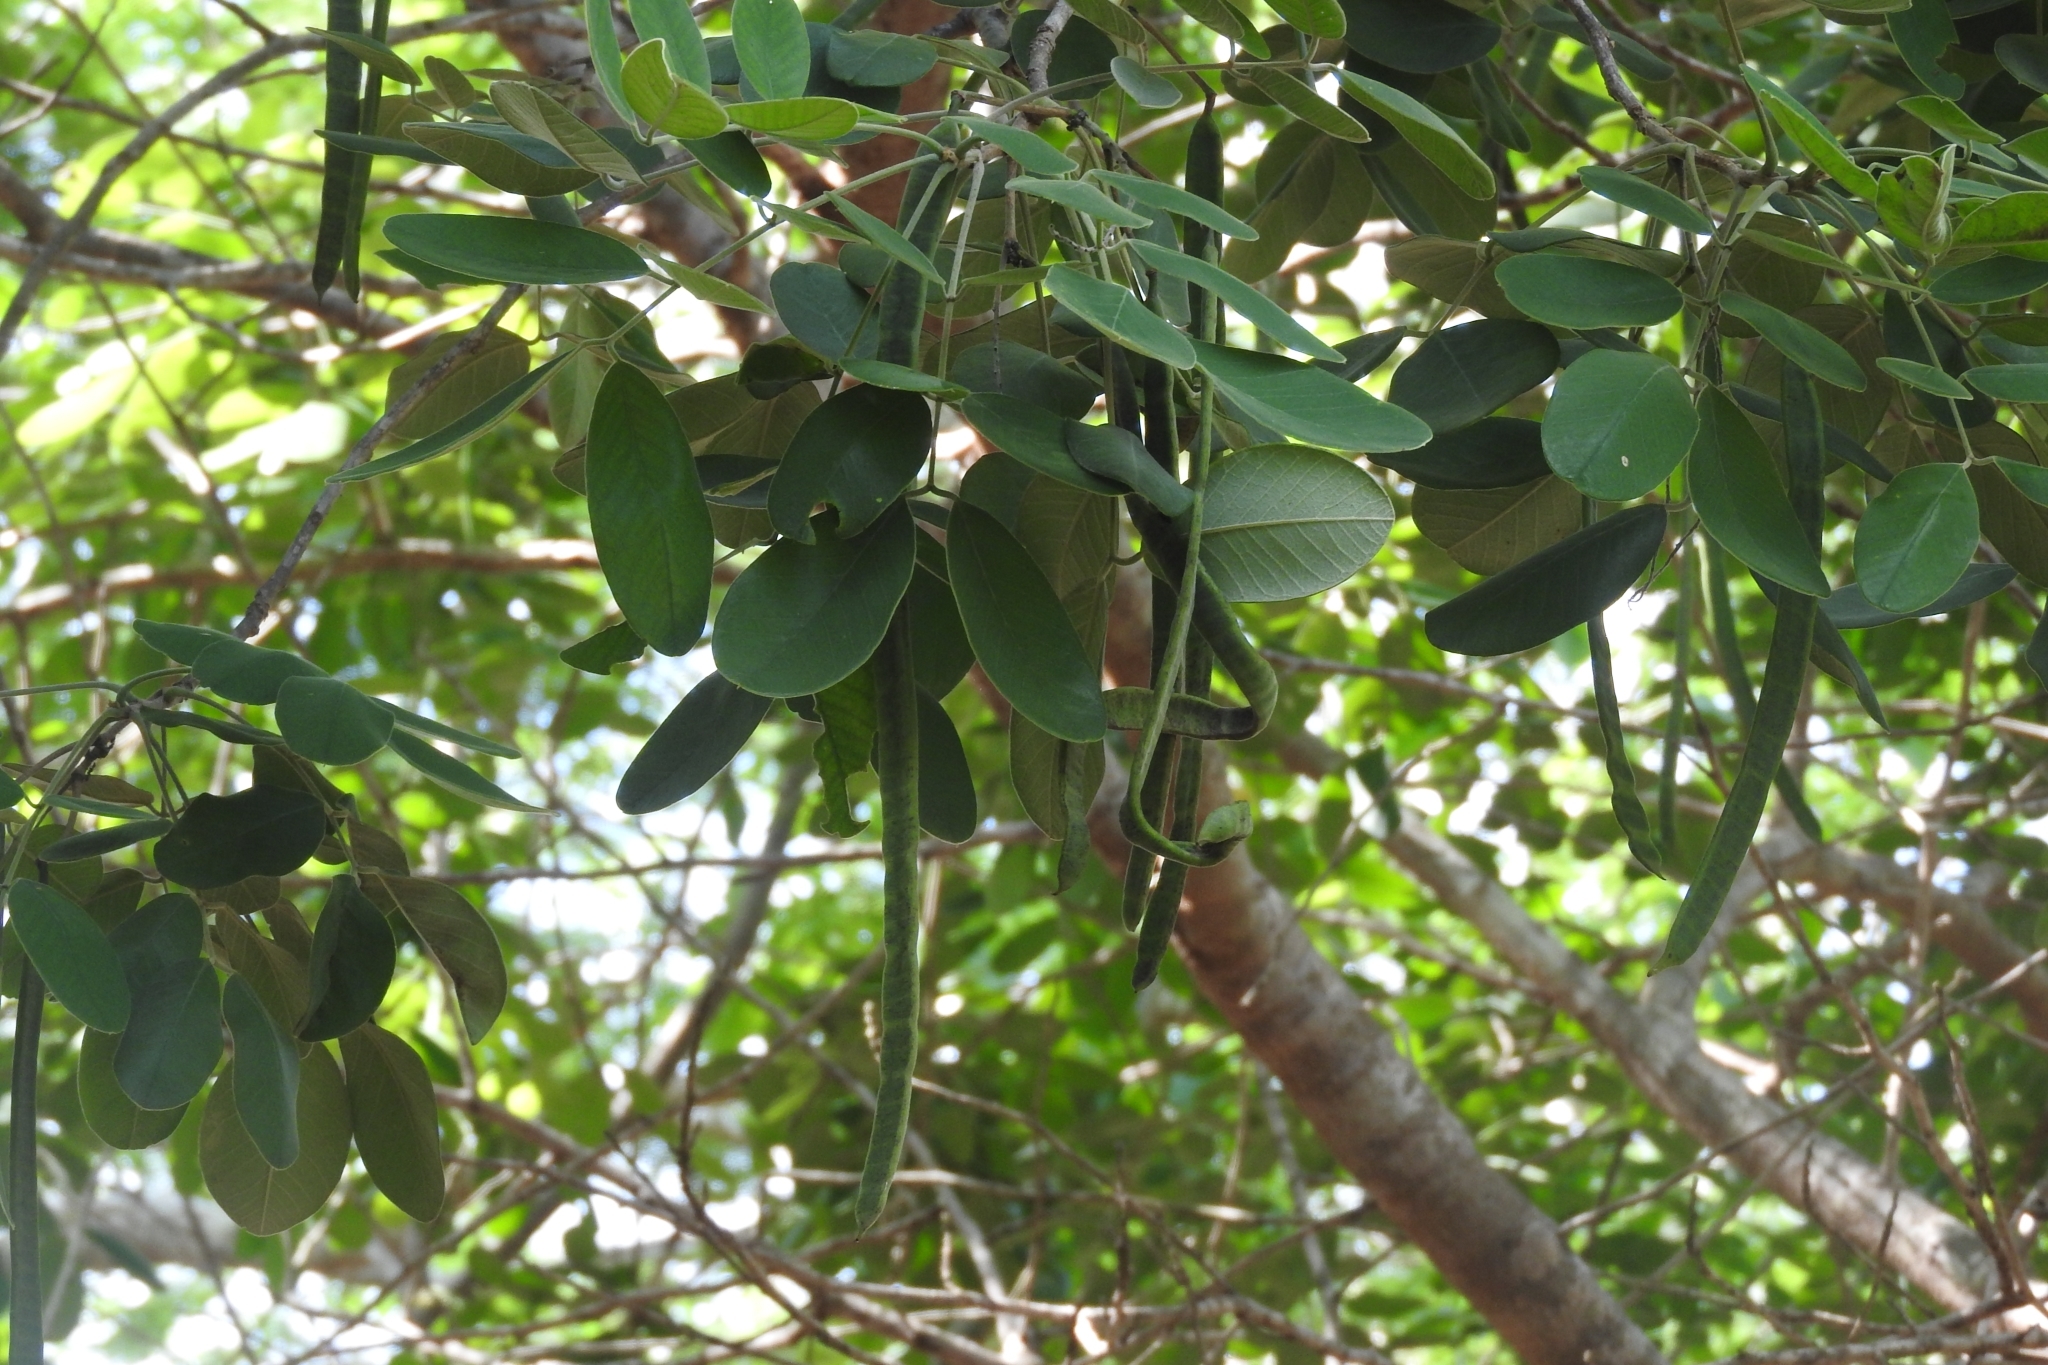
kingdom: Plantae
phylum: Tracheophyta
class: Magnoliopsida
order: Fabales
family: Fabaceae
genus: Senna
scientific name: Senna atomaria
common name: Flor de san jose
